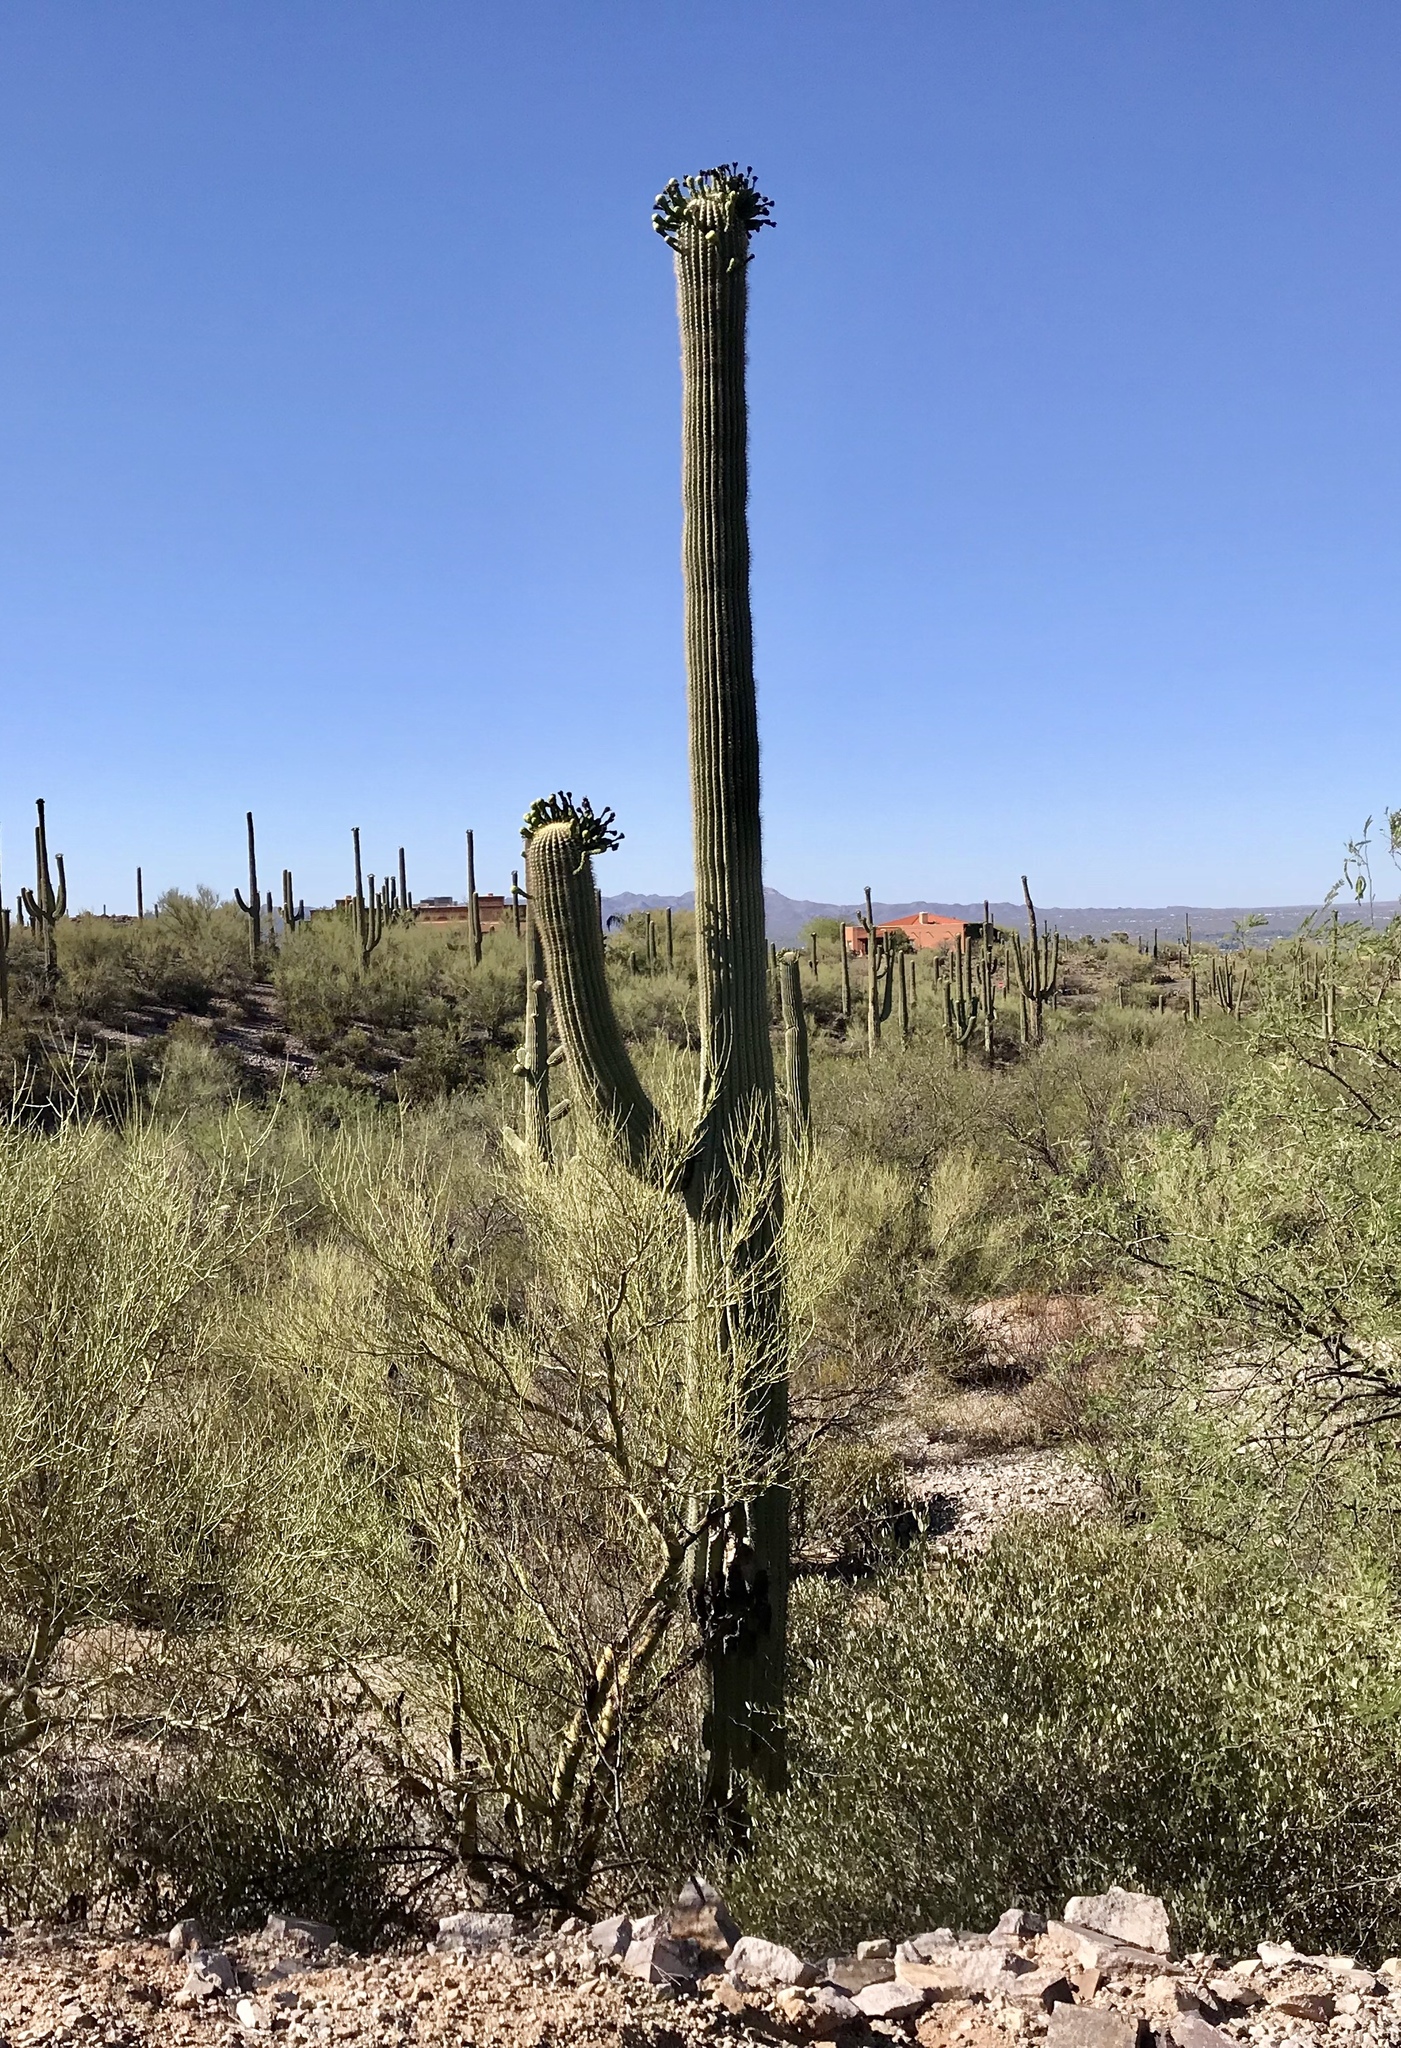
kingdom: Plantae
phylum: Tracheophyta
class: Magnoliopsida
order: Caryophyllales
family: Cactaceae
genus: Carnegiea
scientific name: Carnegiea gigantea
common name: Saguaro
